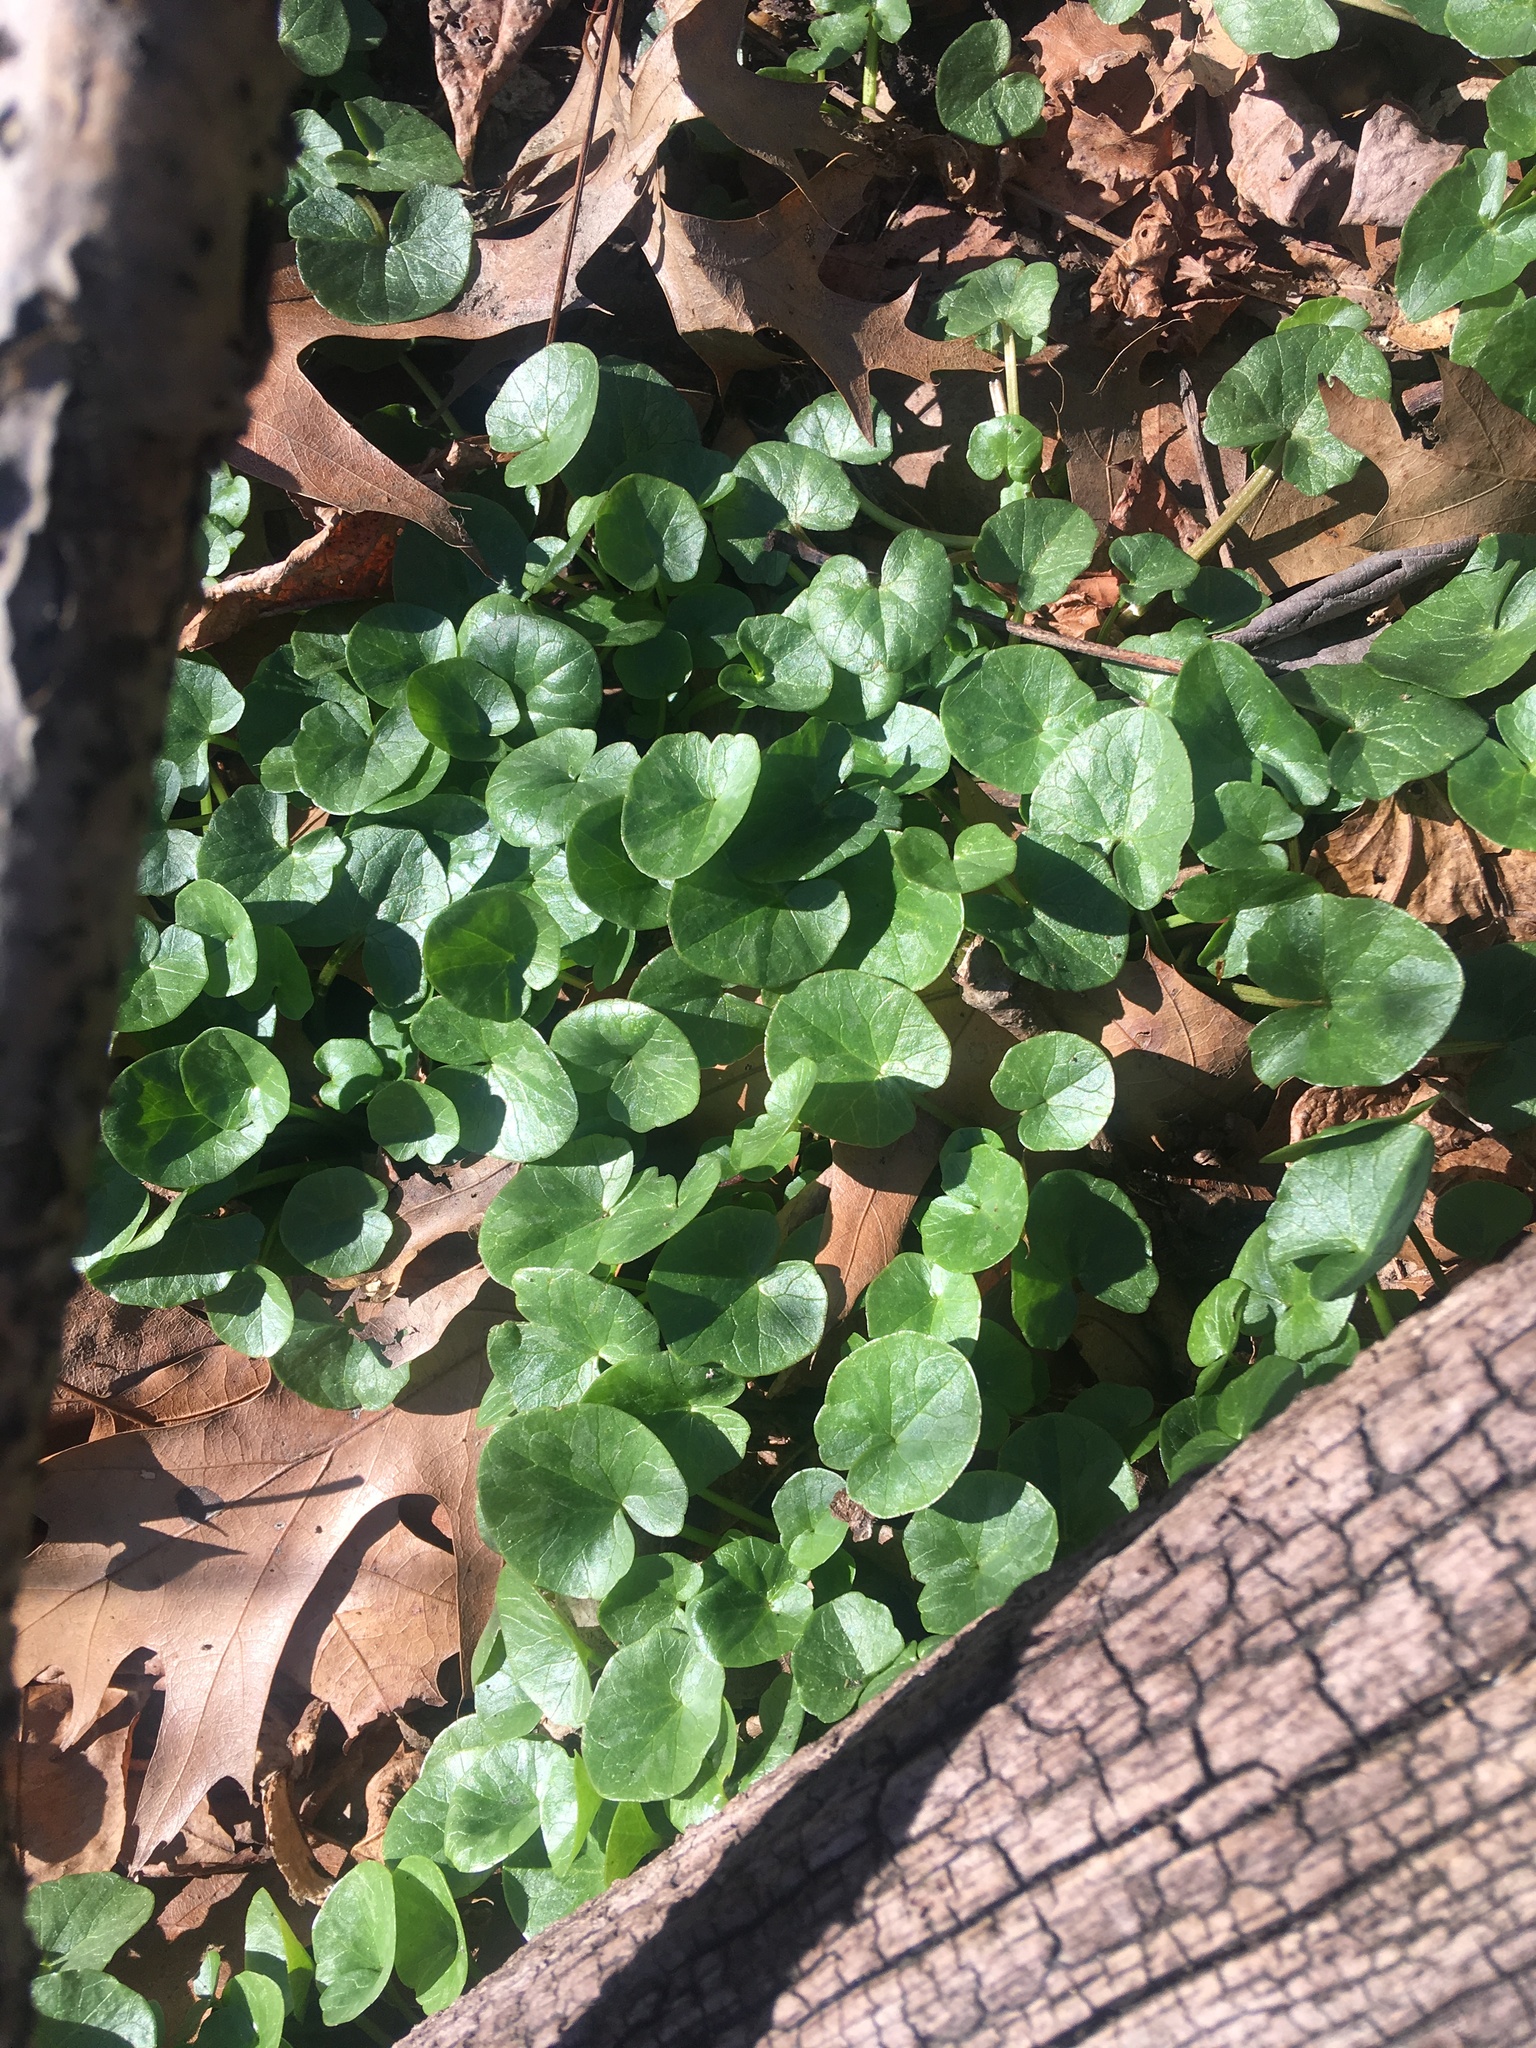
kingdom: Plantae
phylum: Tracheophyta
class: Magnoliopsida
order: Ranunculales
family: Ranunculaceae
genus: Ficaria
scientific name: Ficaria verna
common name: Lesser celandine
